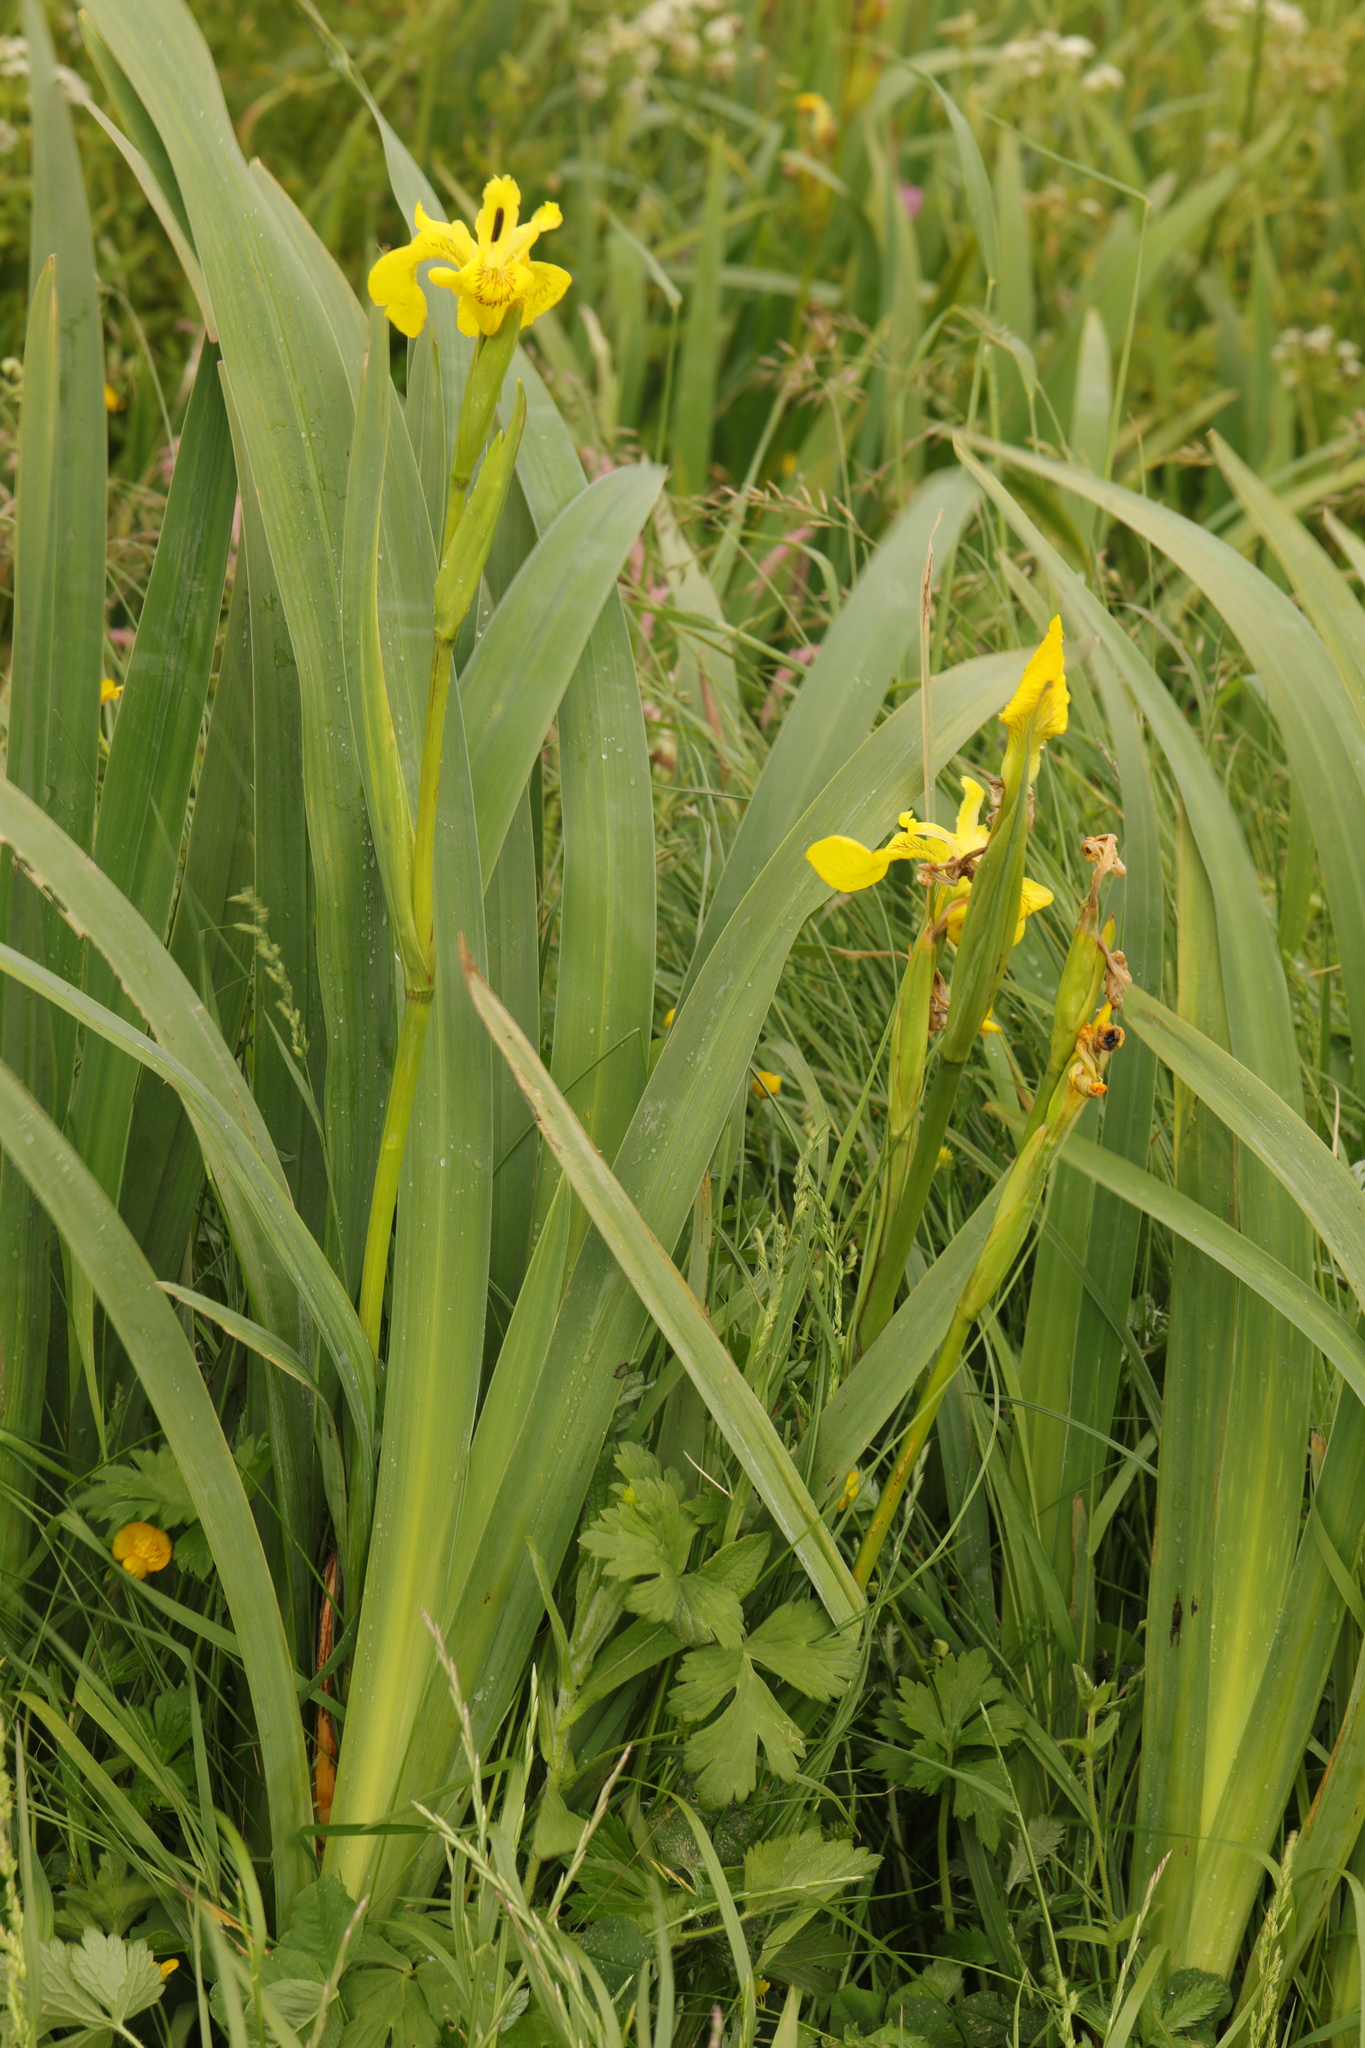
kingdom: Plantae
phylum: Tracheophyta
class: Liliopsida
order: Asparagales
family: Iridaceae
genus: Iris
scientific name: Iris pseudacorus
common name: Yellow flag
